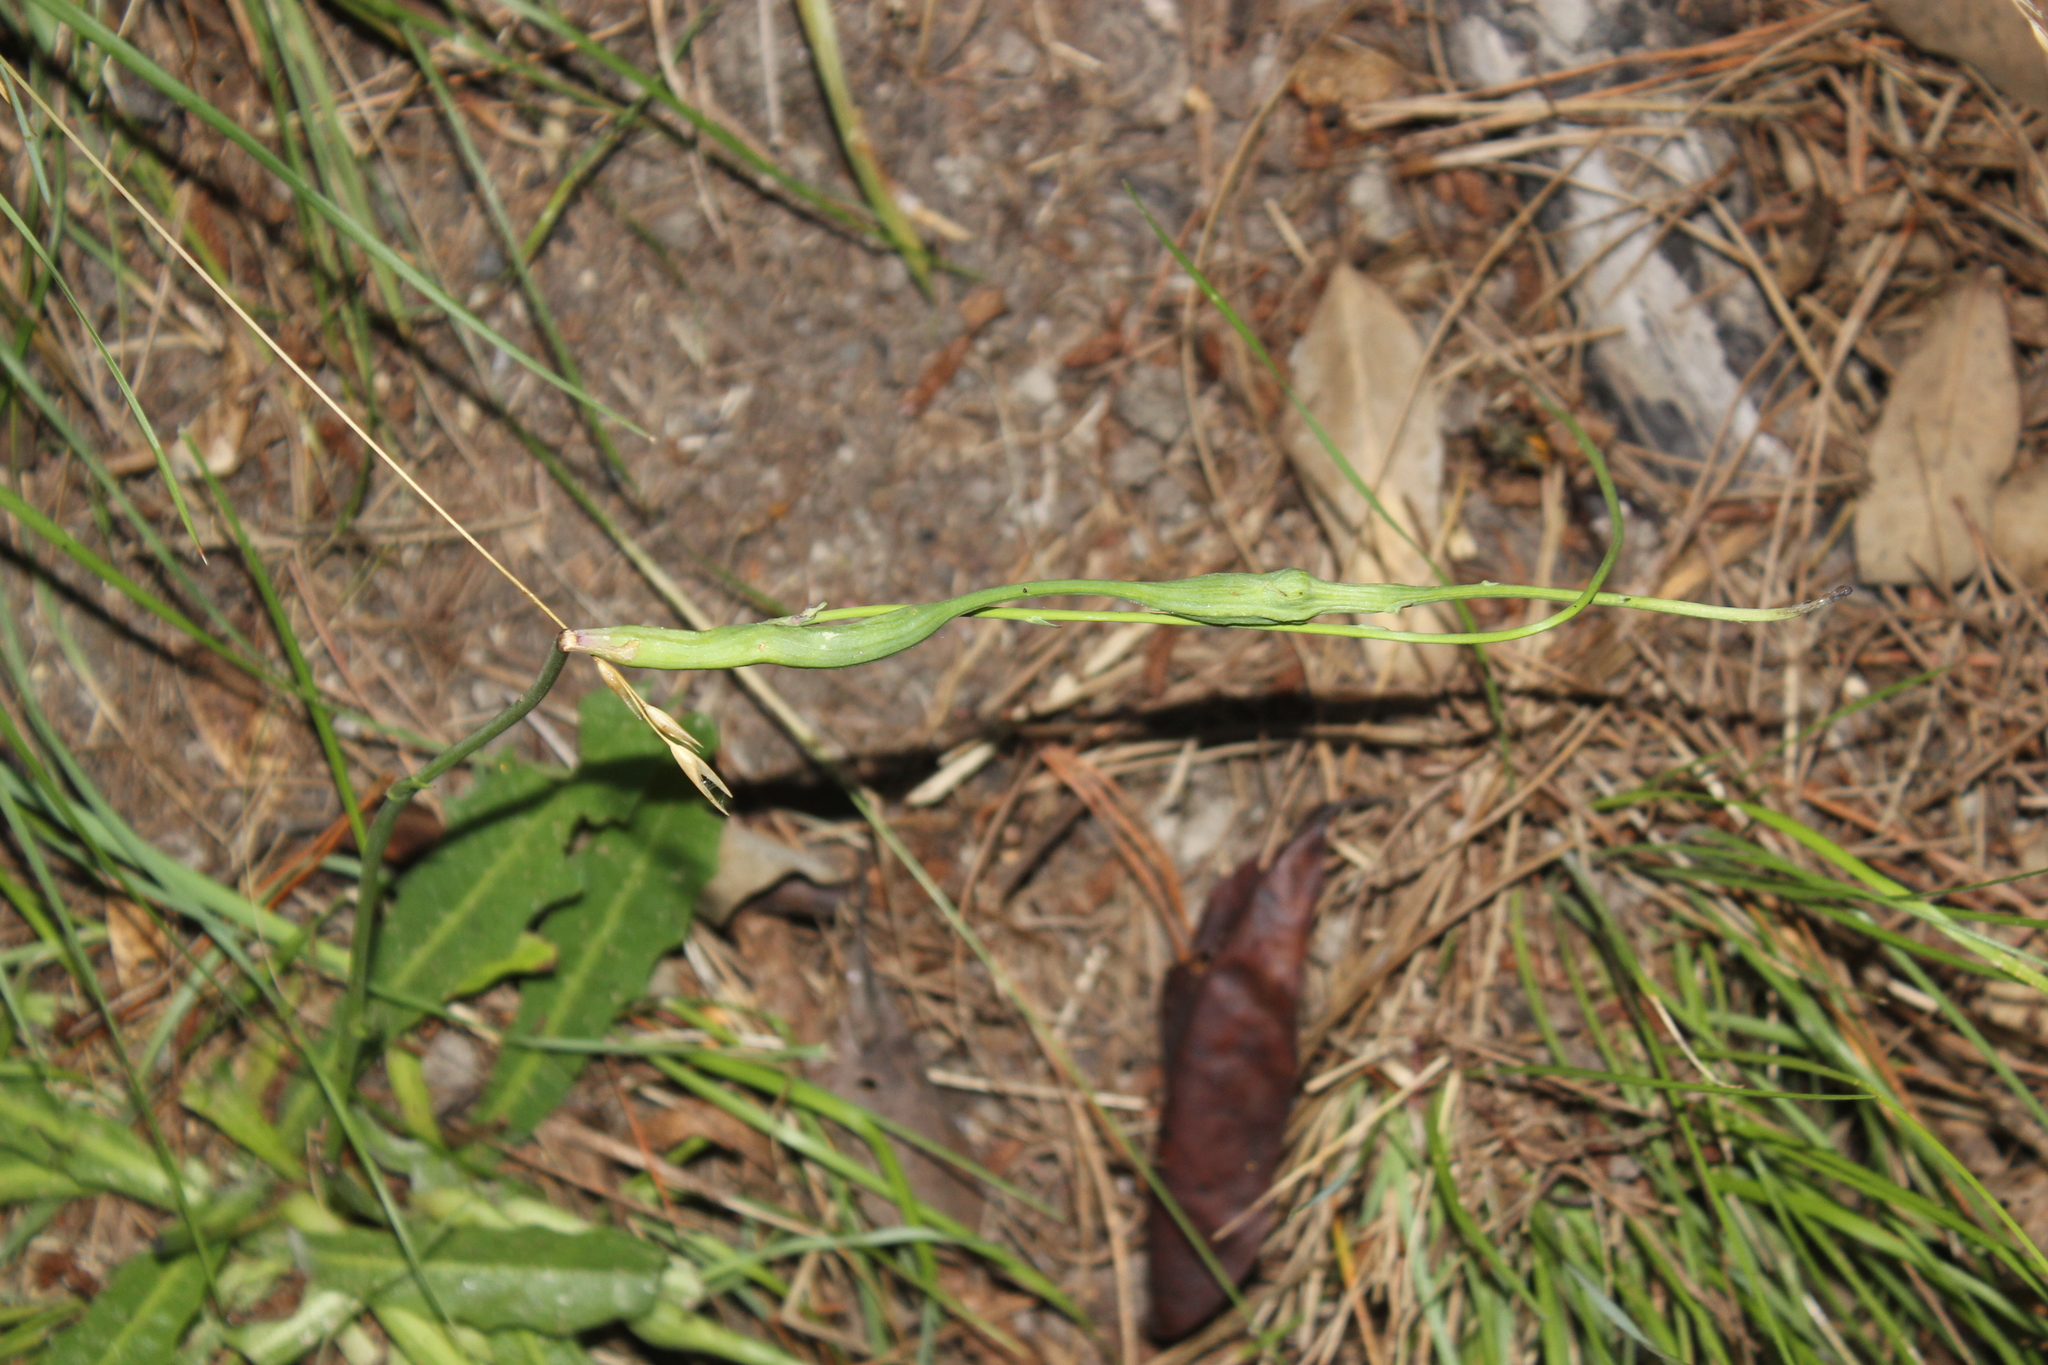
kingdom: Animalia
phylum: Arthropoda
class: Insecta
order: Hymenoptera
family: Cynipidae
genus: Phanacis
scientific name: Phanacis hypochoeridis
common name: Gall wasp
